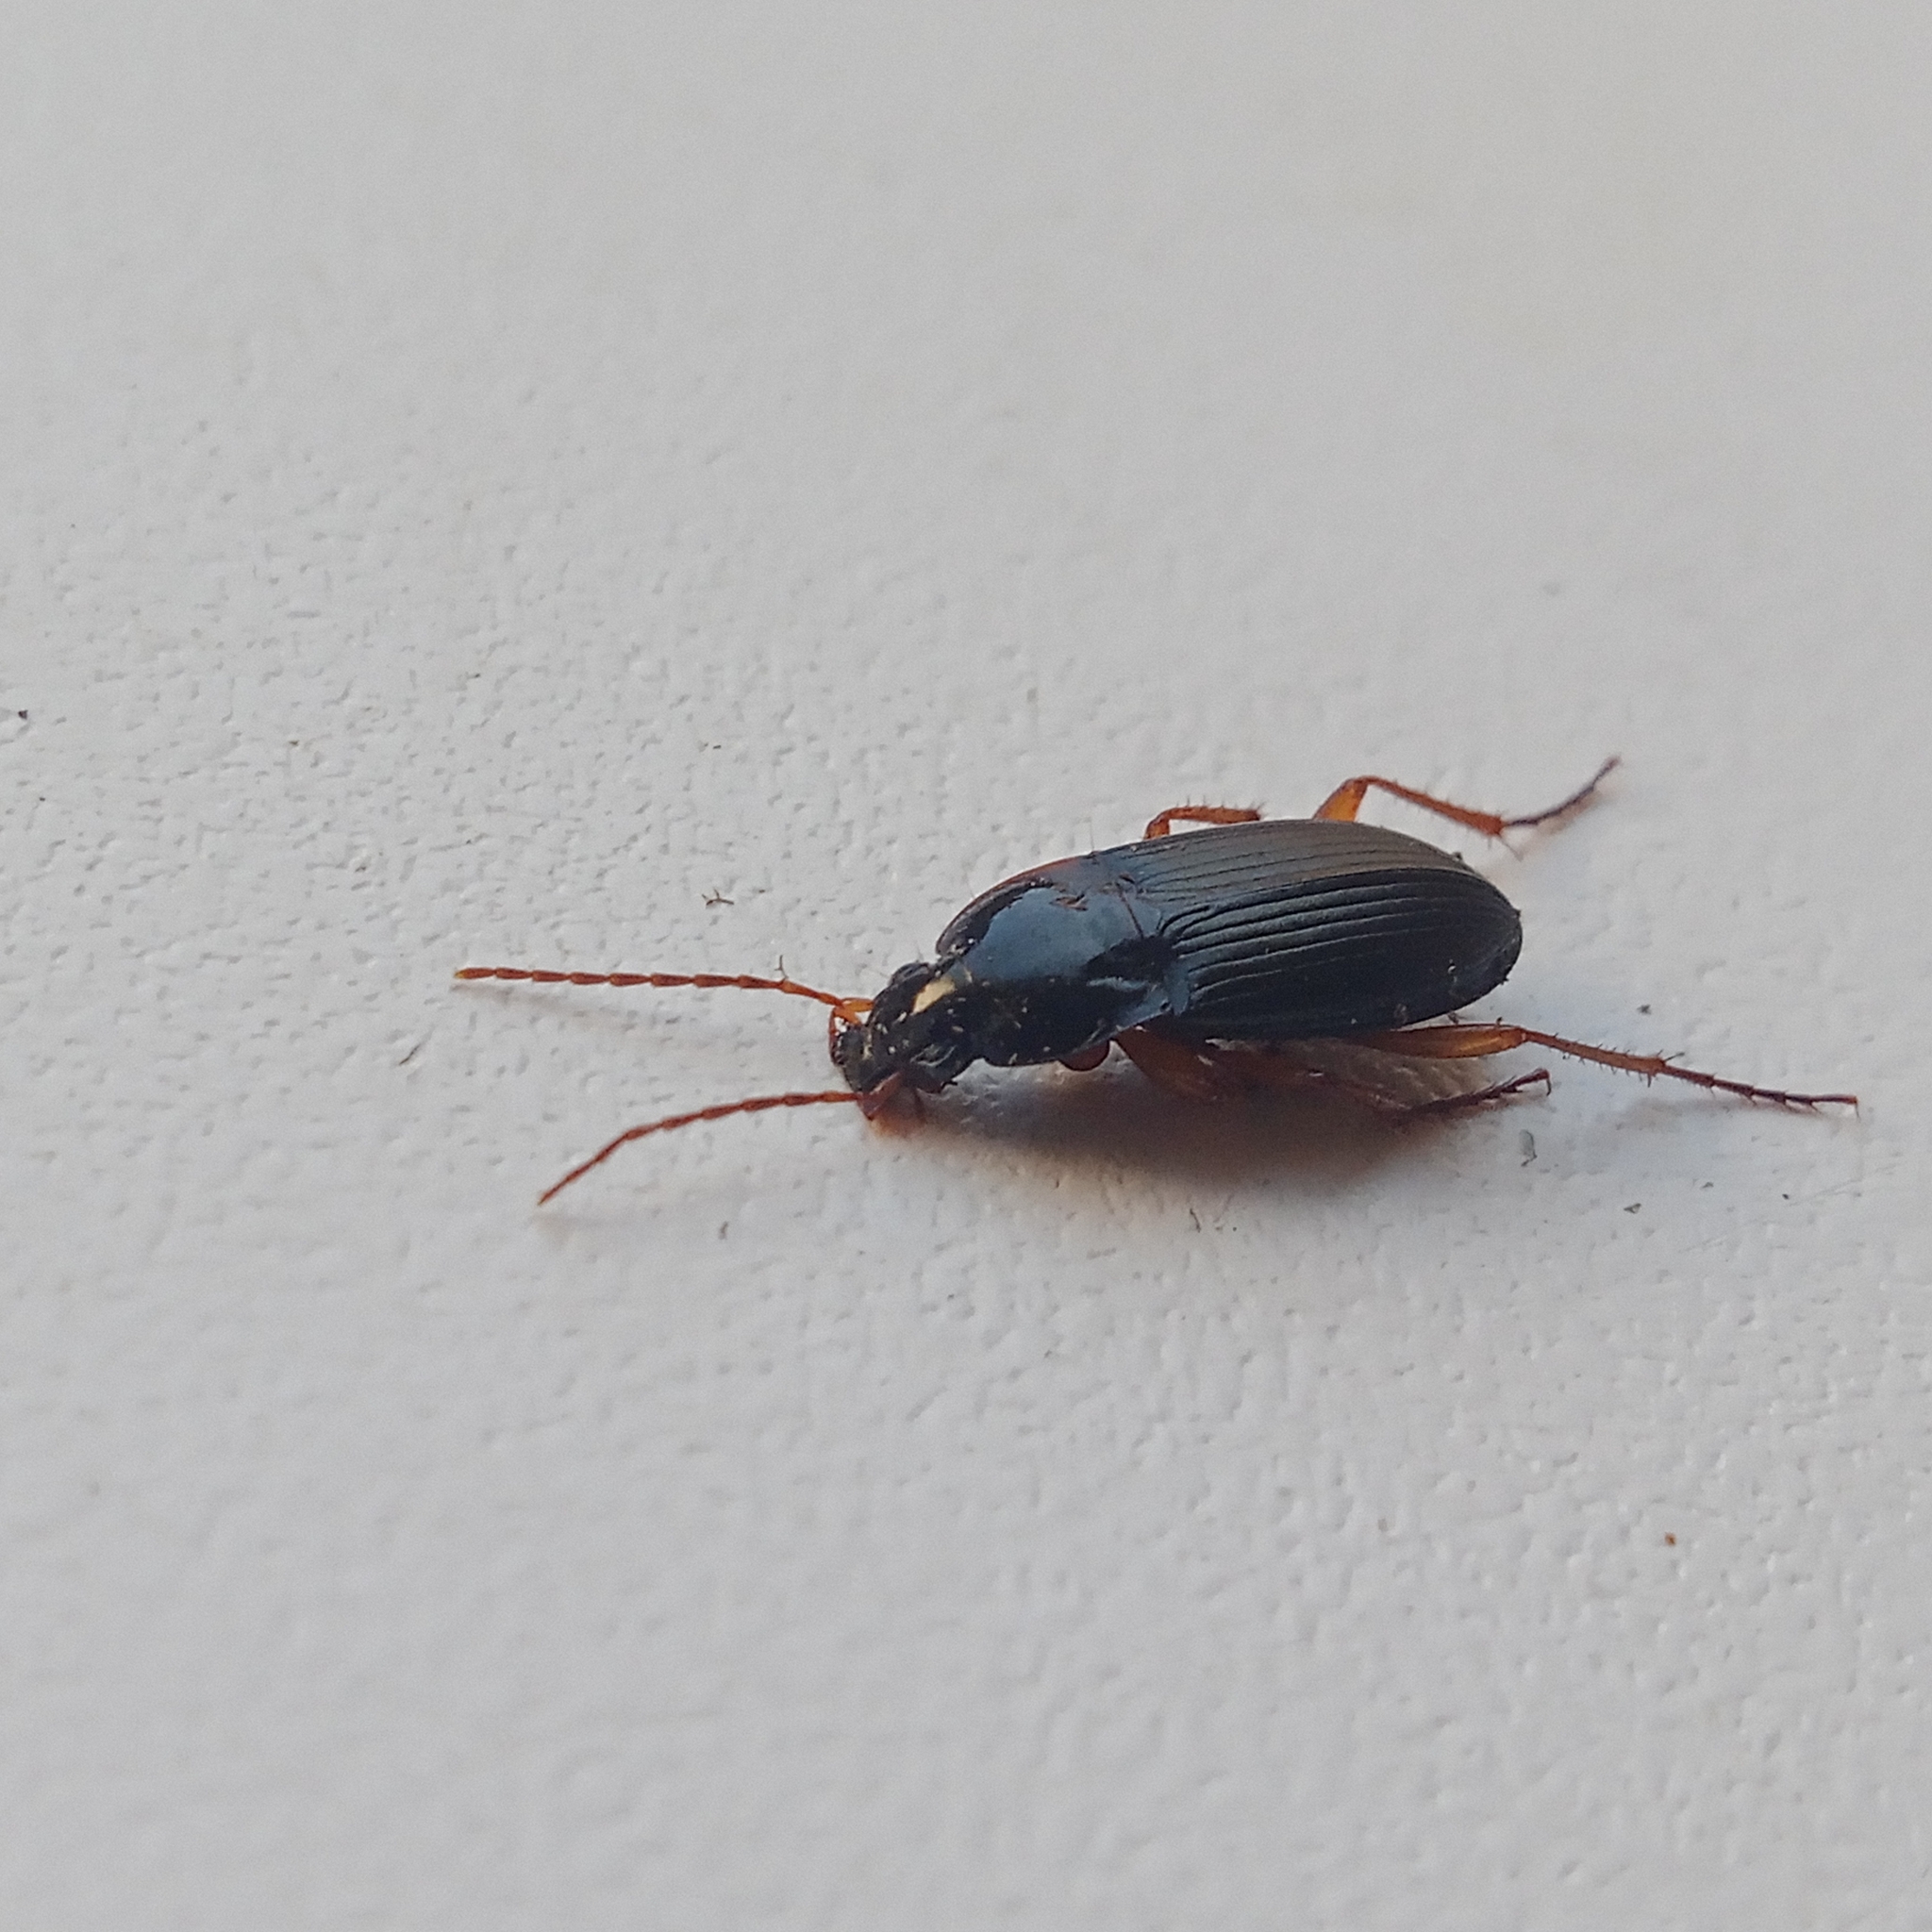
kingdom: Animalia
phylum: Arthropoda
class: Insecta
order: Coleoptera
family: Carabidae
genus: Calathus
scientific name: Calathus erratus
